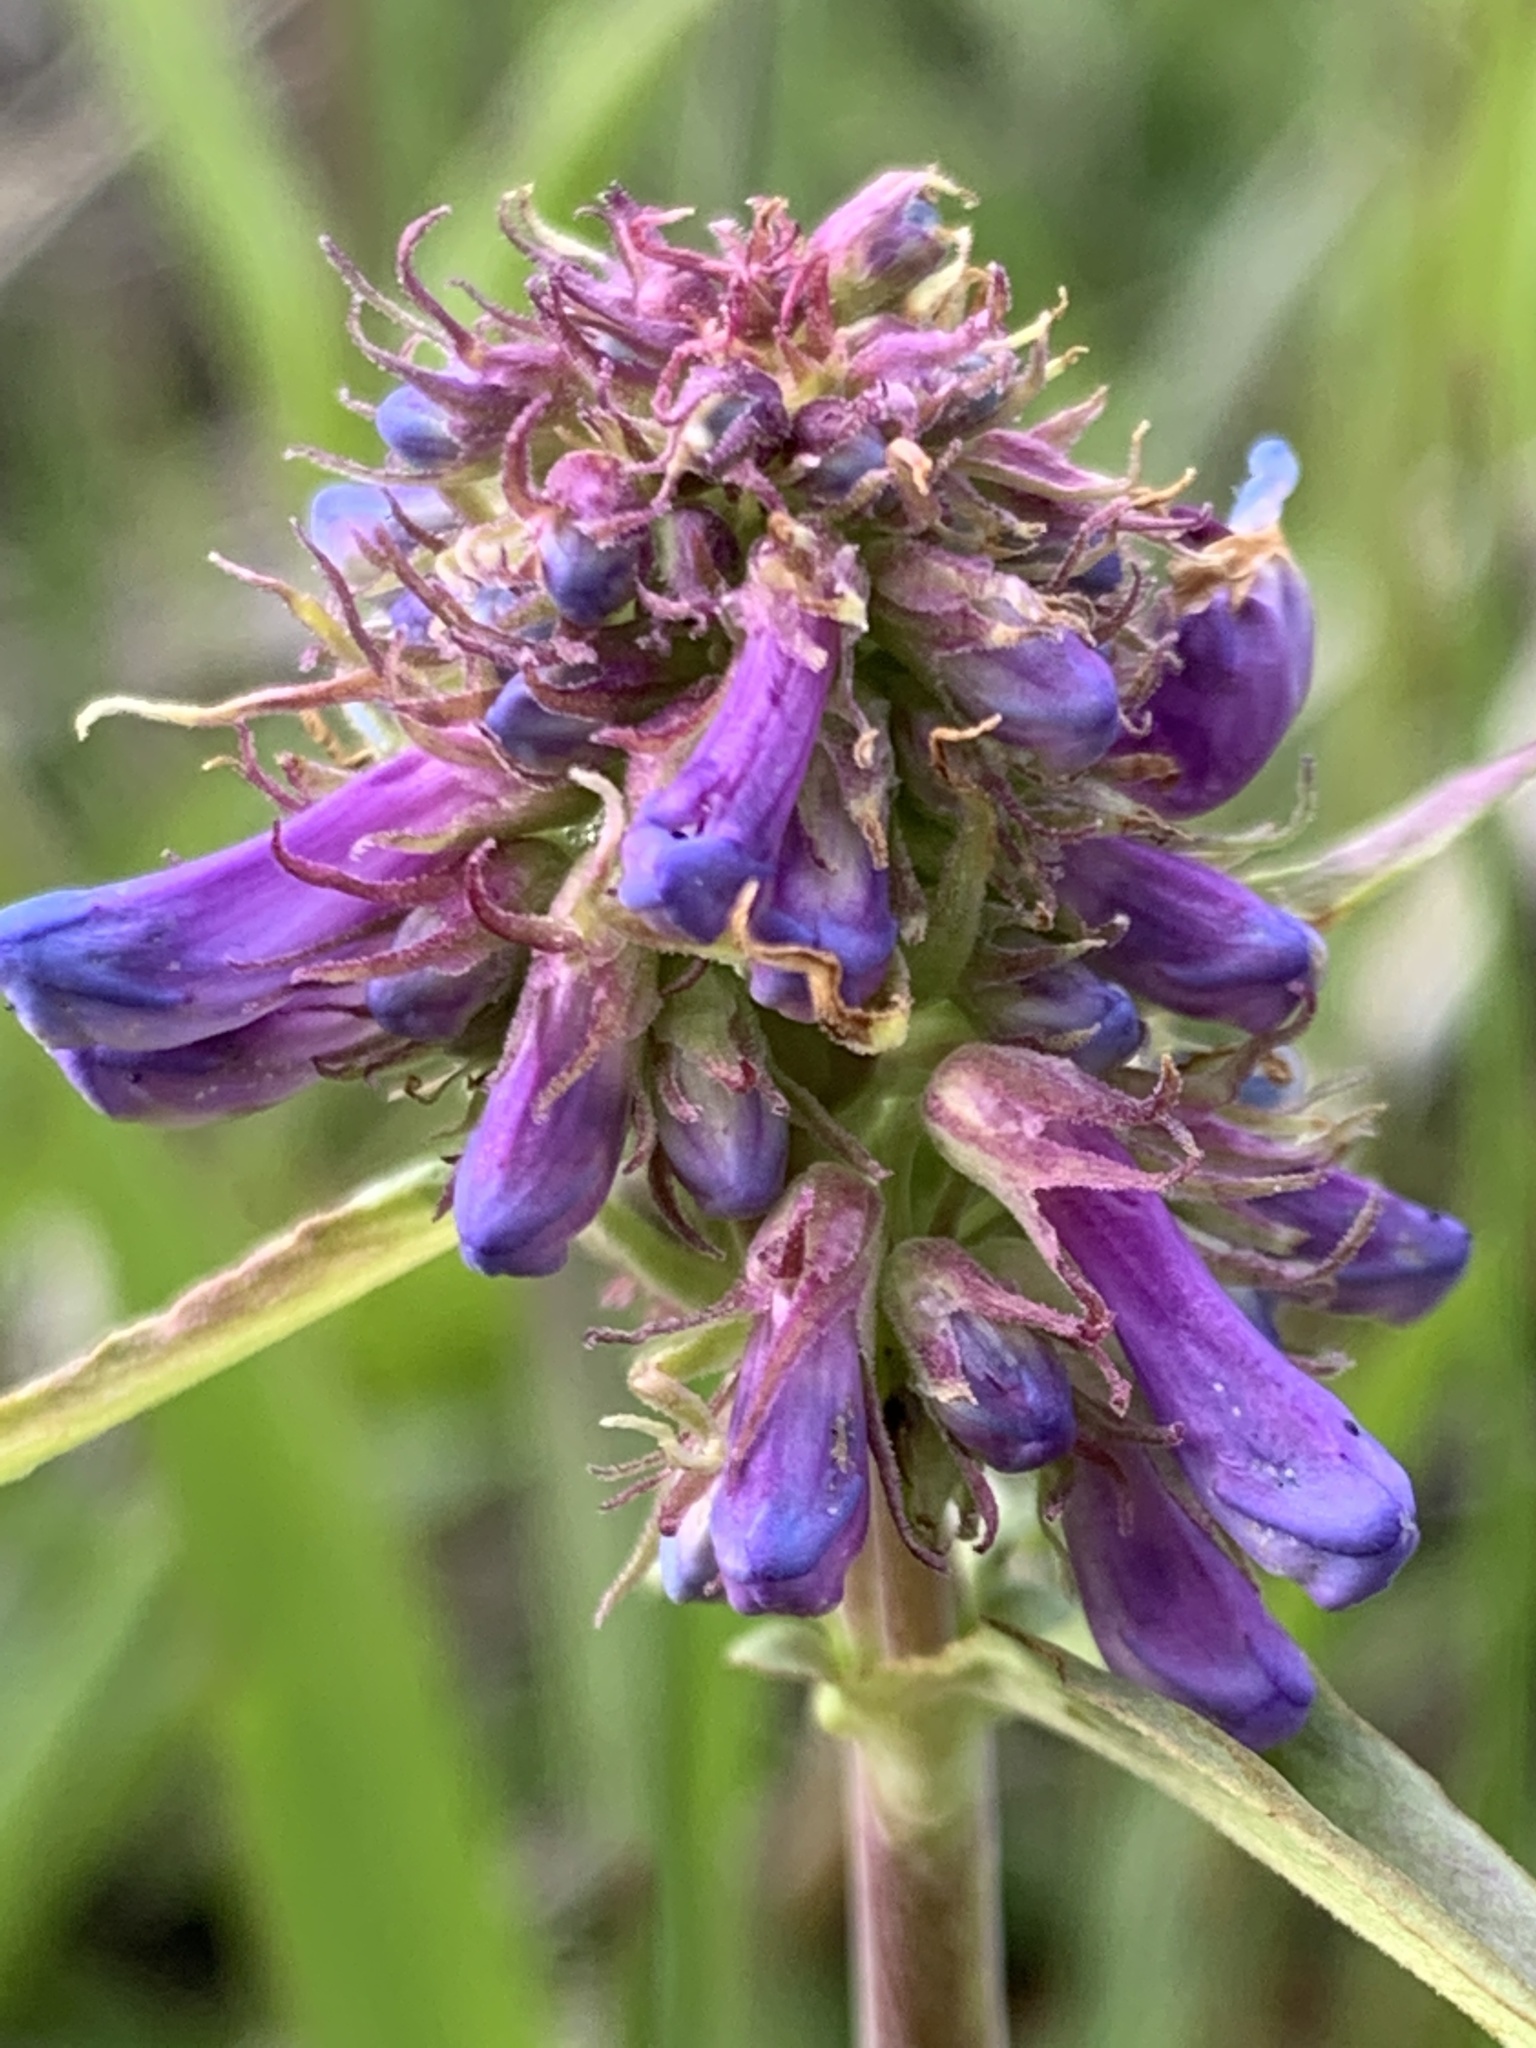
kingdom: Plantae
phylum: Tracheophyta
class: Magnoliopsida
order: Lamiales
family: Plantaginaceae
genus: Penstemon
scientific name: Penstemon procerus
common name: Small-flower penstemon
